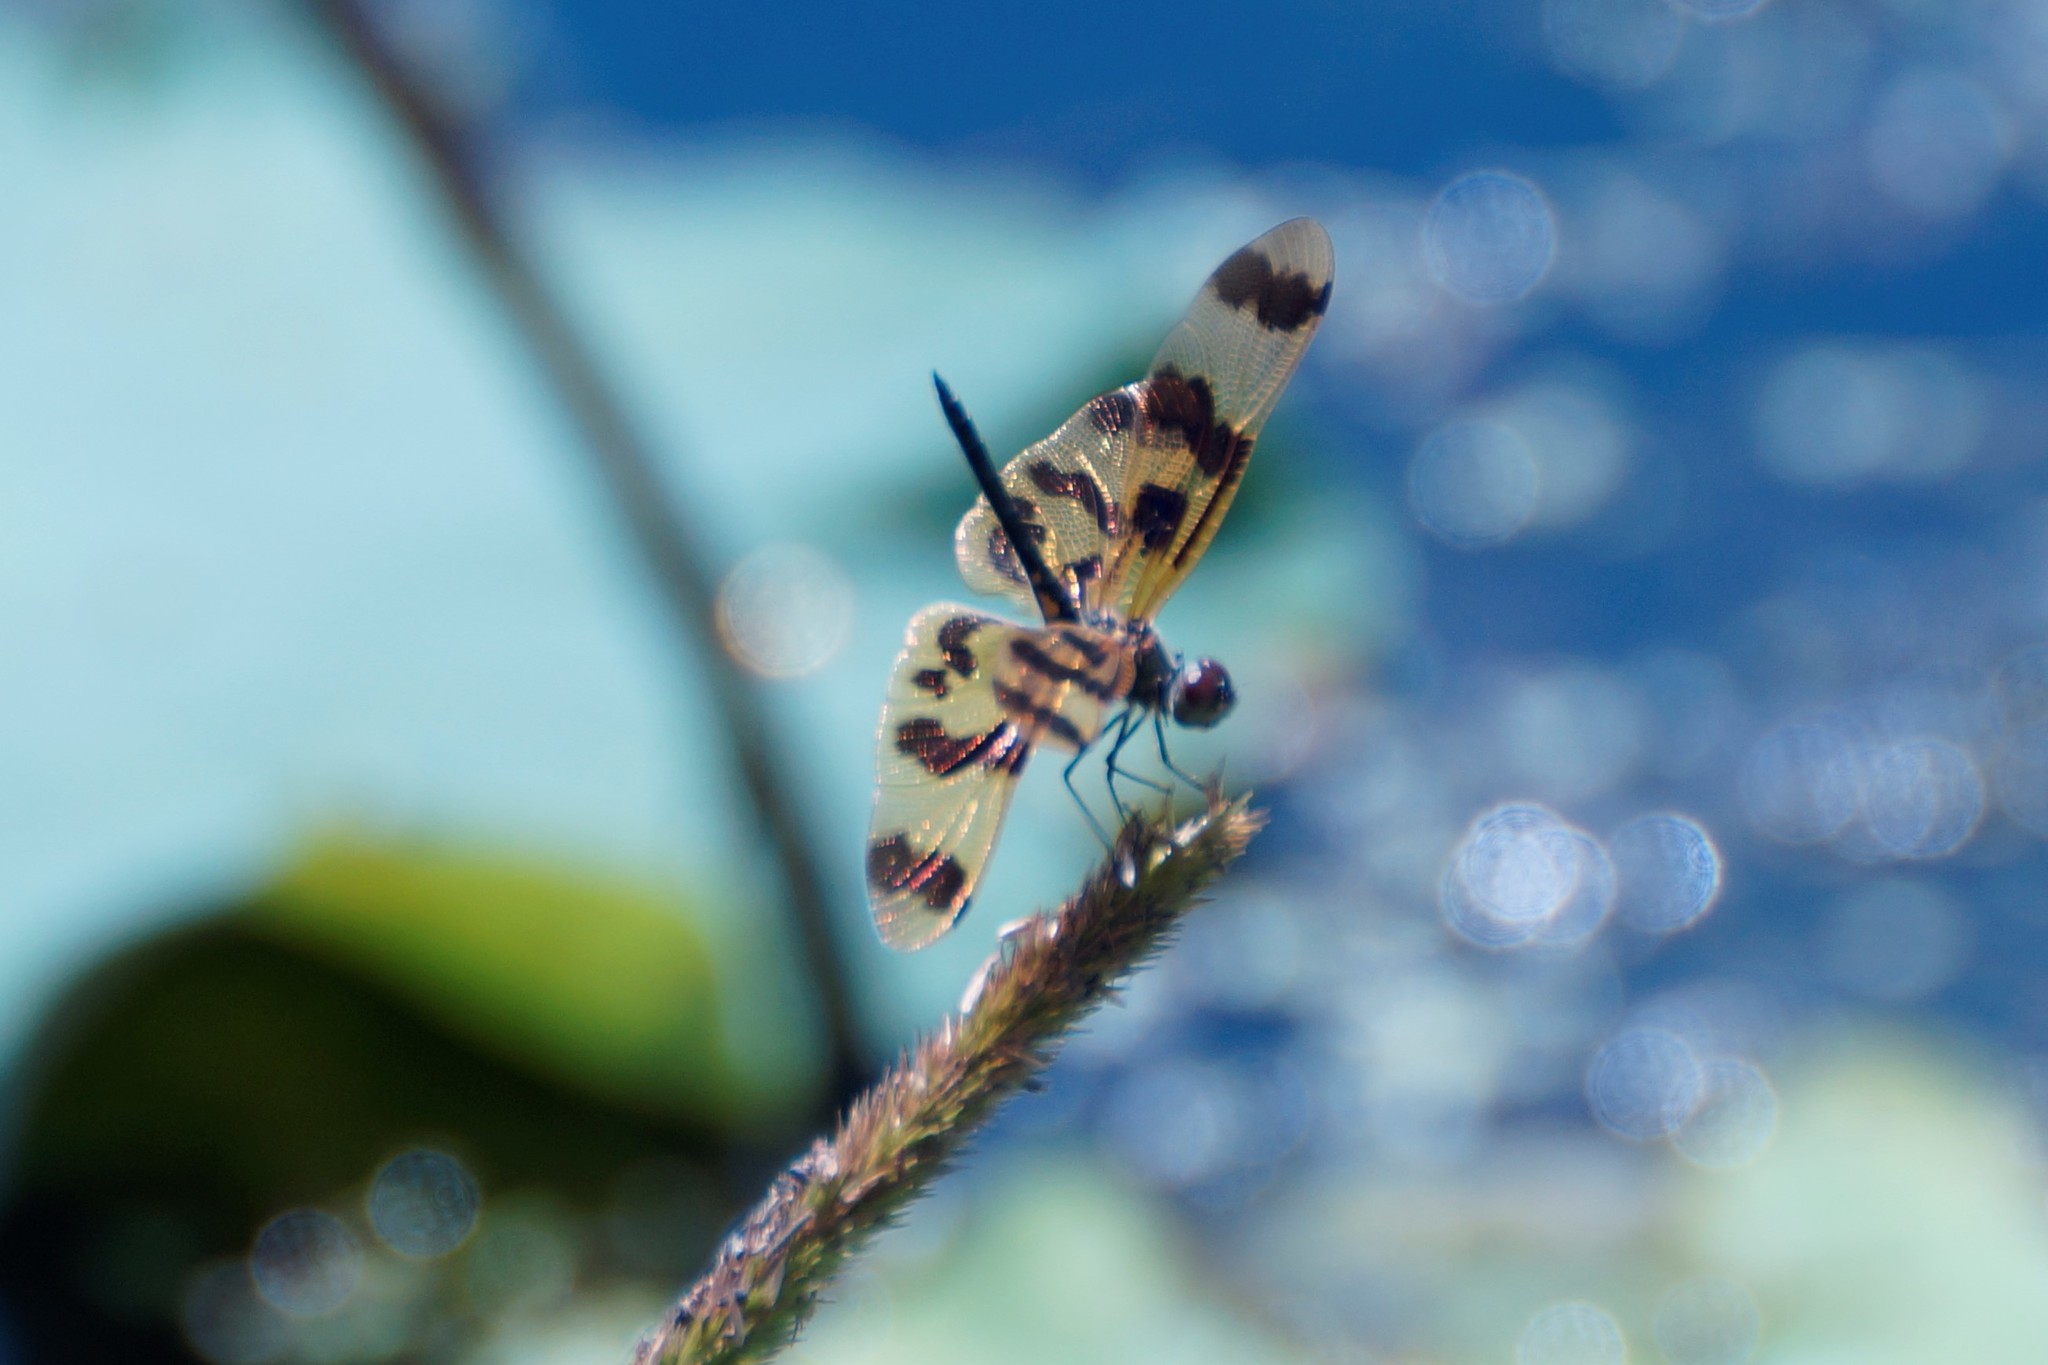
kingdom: Animalia
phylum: Arthropoda
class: Insecta
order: Odonata
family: Libellulidae
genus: Rhyothemis
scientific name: Rhyothemis graphiptera
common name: Graphic flutterer
